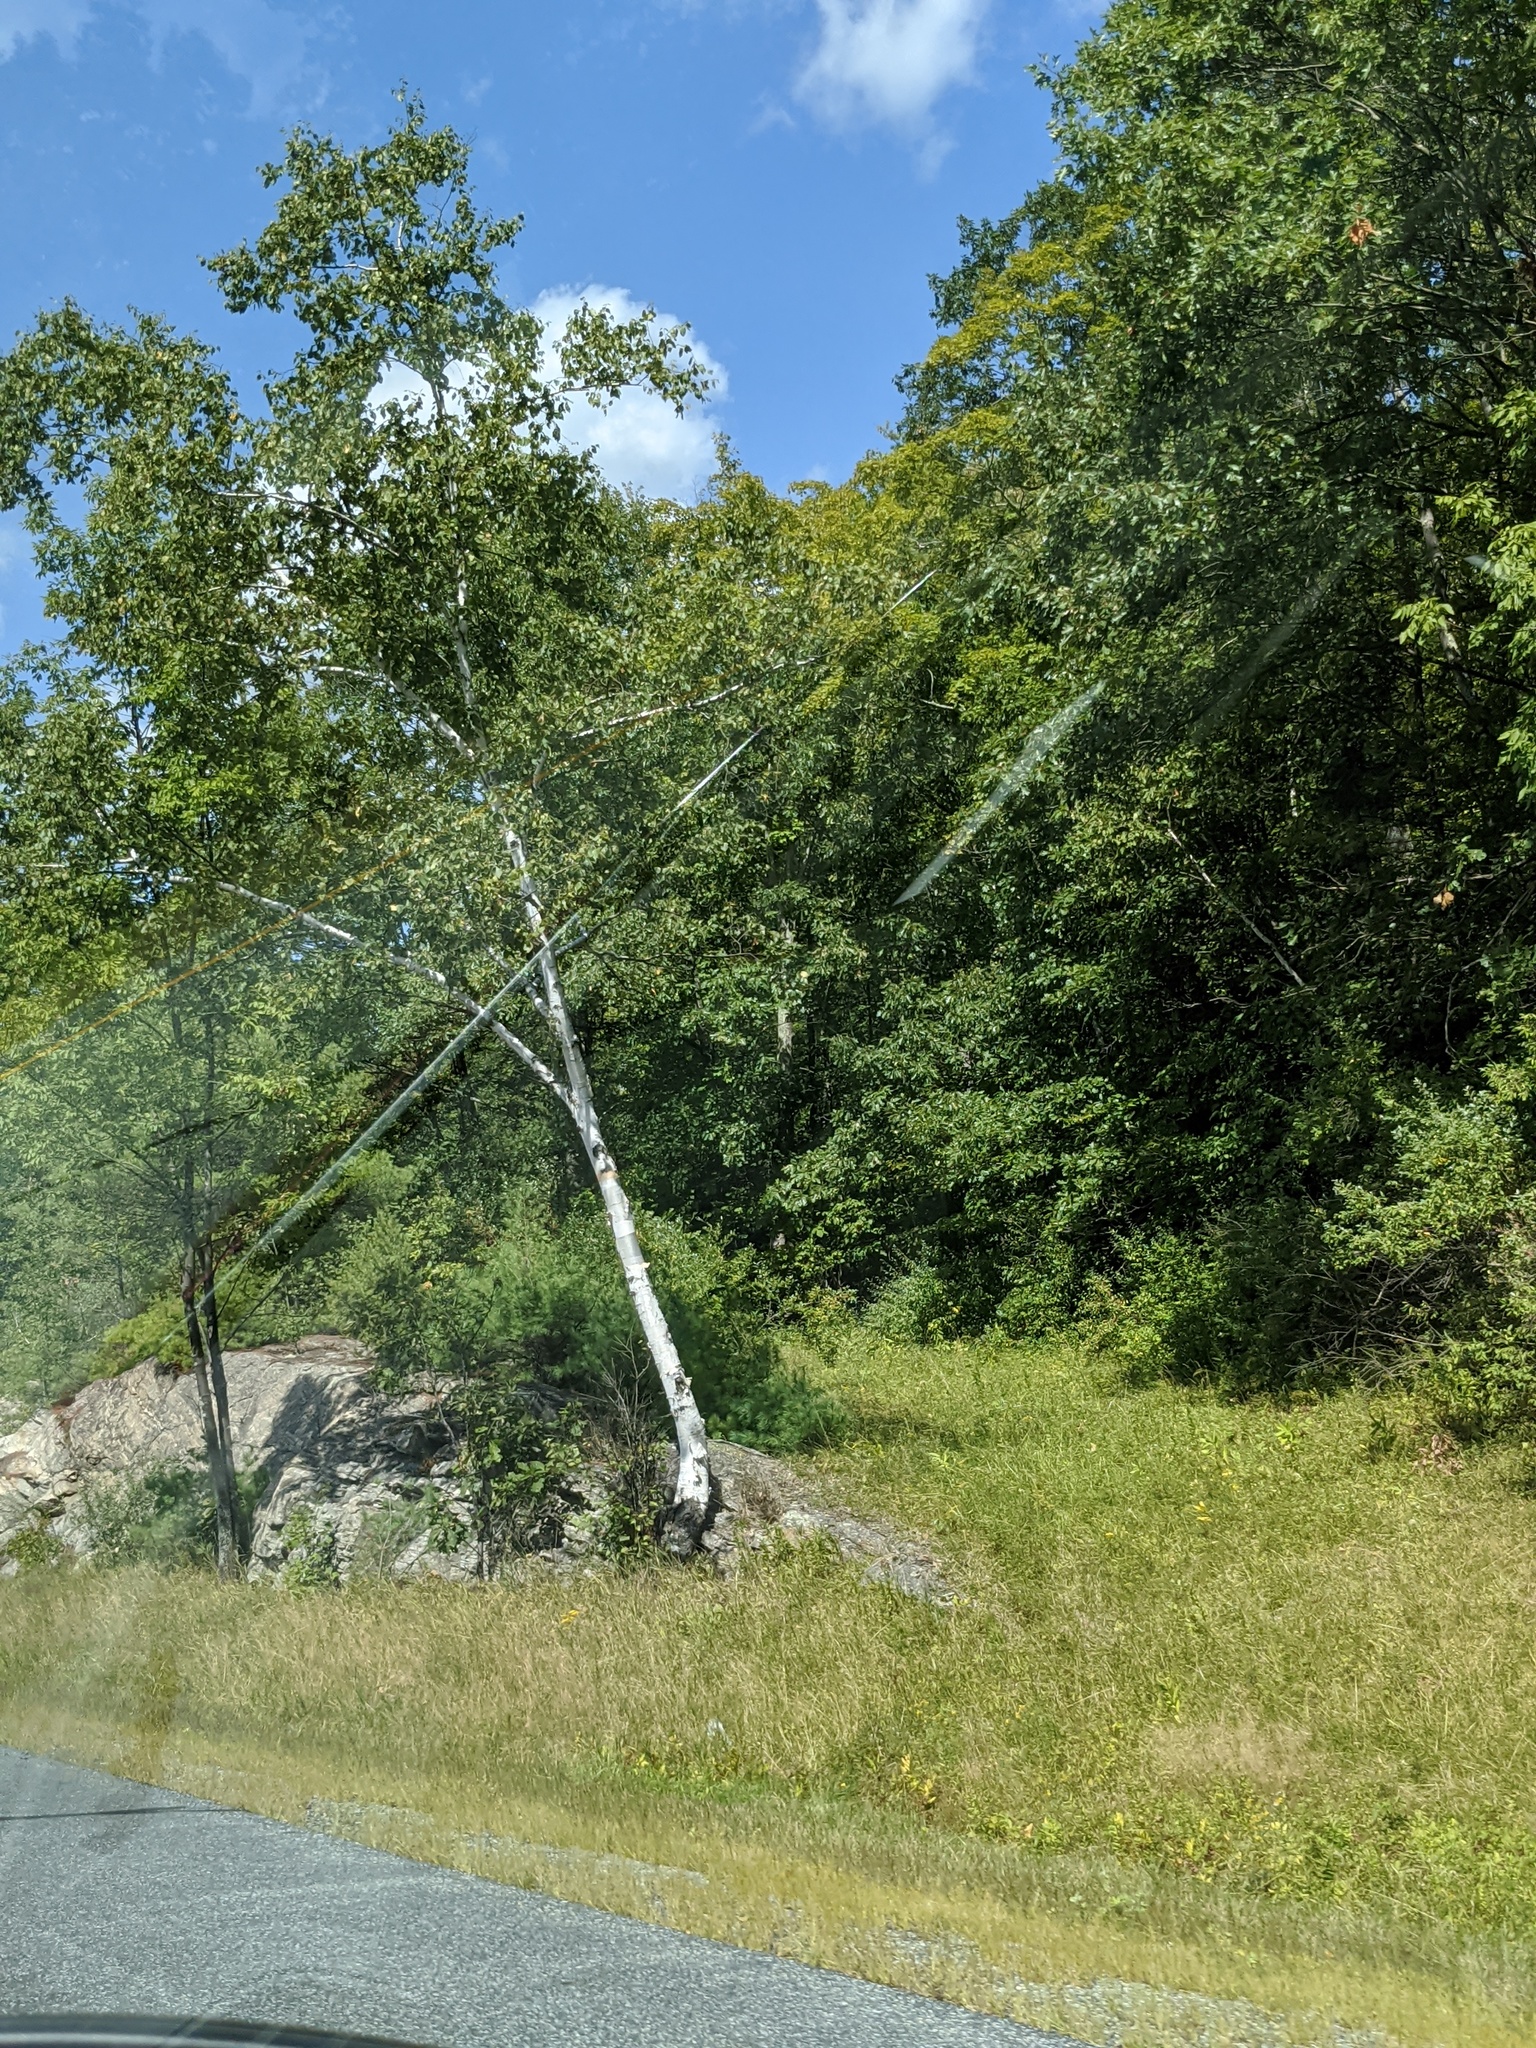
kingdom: Plantae
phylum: Tracheophyta
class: Magnoliopsida
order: Fagales
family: Betulaceae
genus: Betula
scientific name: Betula papyrifera
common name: Paper birch
